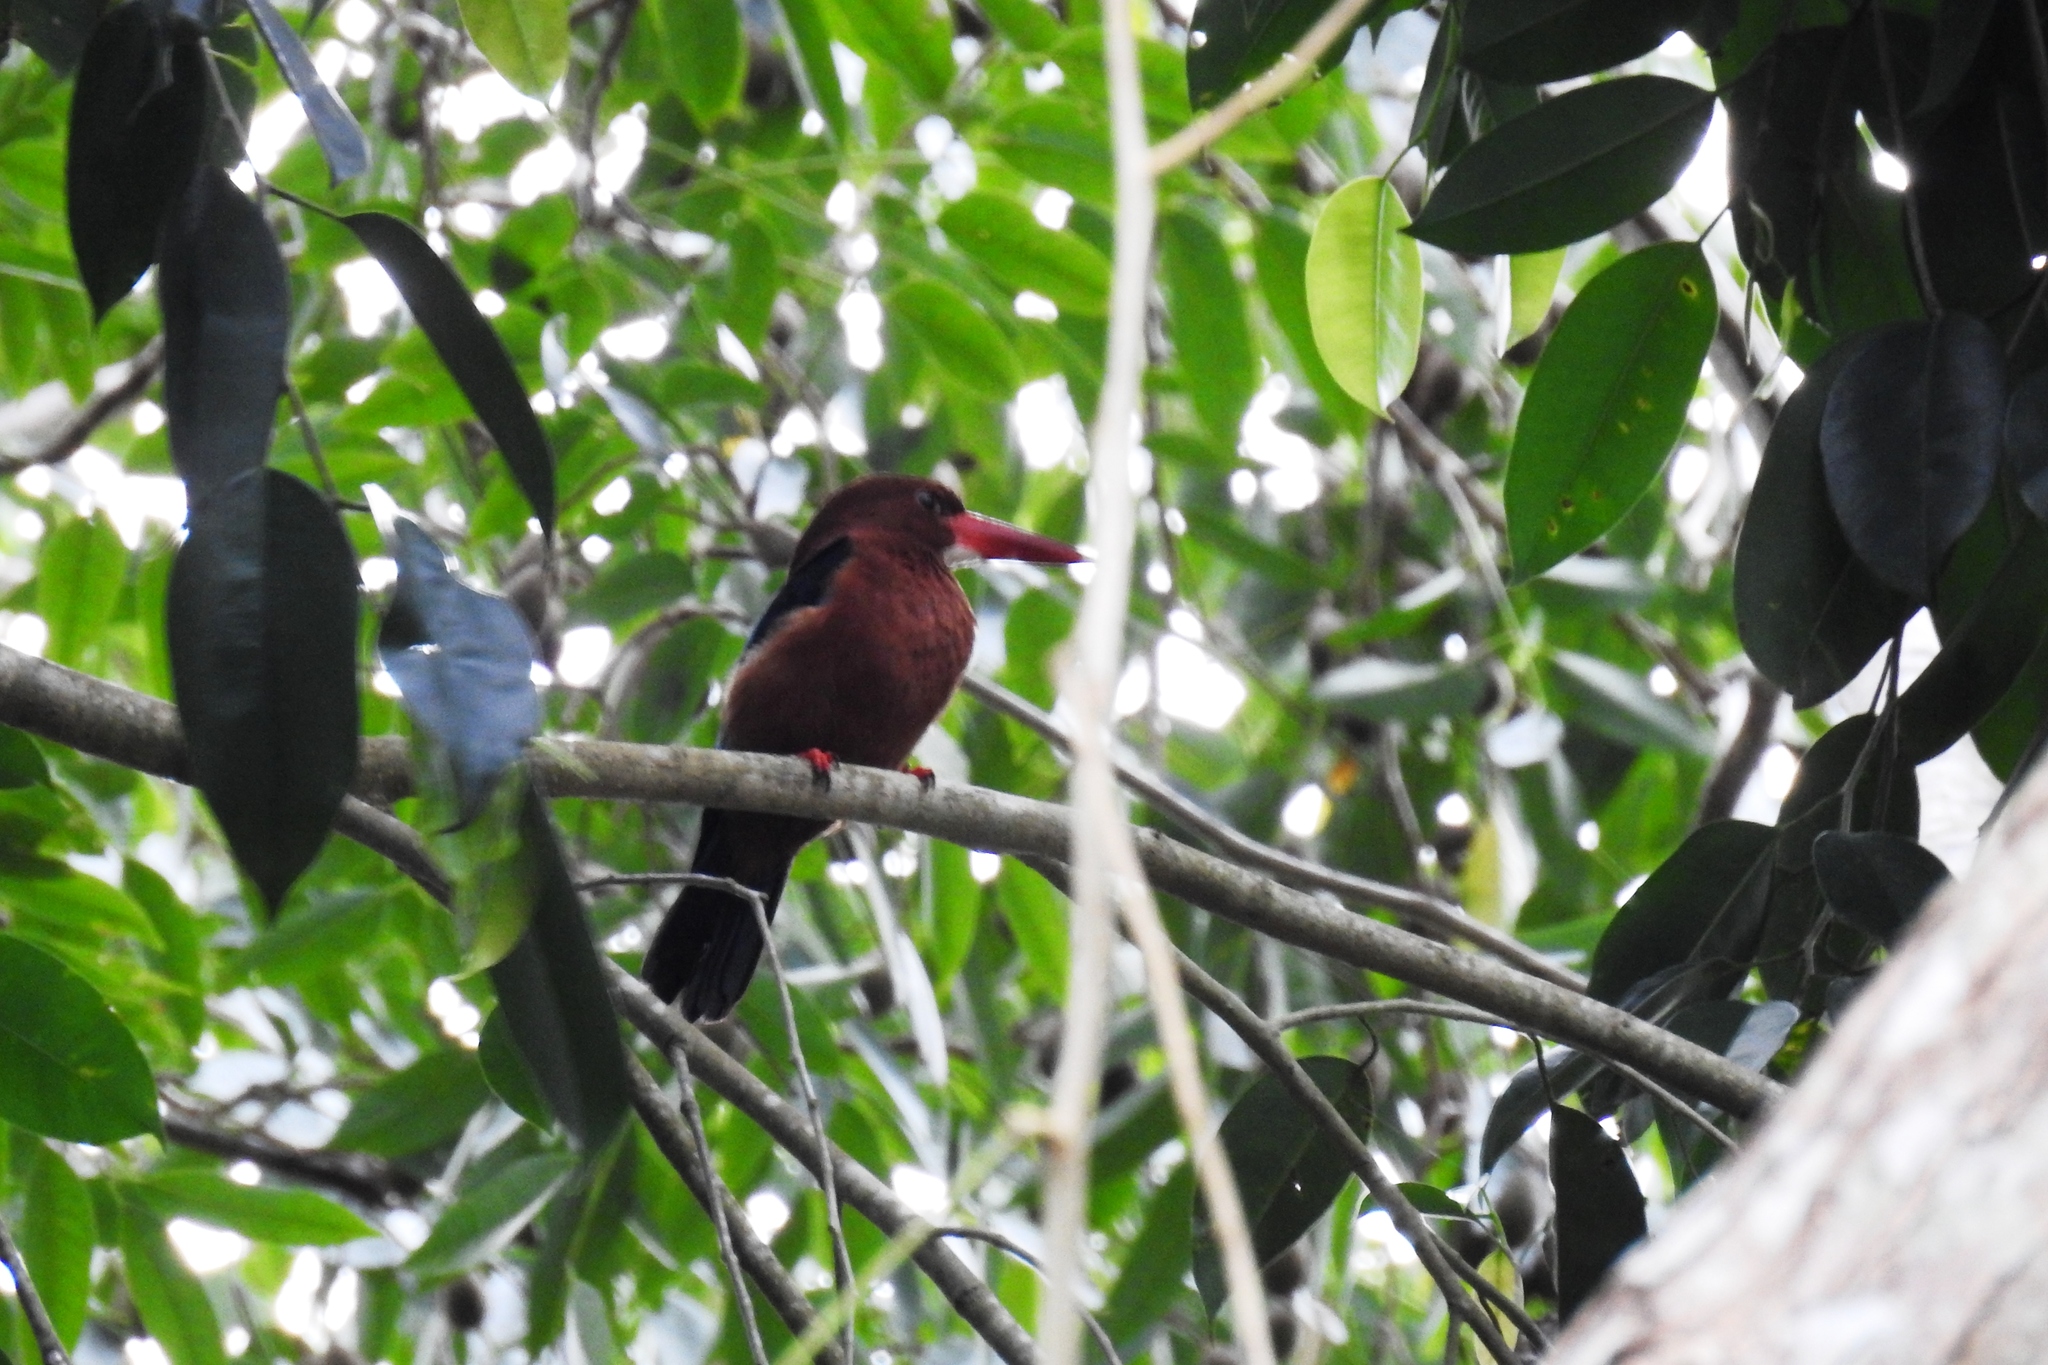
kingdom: Animalia
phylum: Chordata
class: Aves
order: Coraciiformes
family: Alcedinidae
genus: Halcyon
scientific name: Halcyon gularis
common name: Brown-breasted kingfisher
